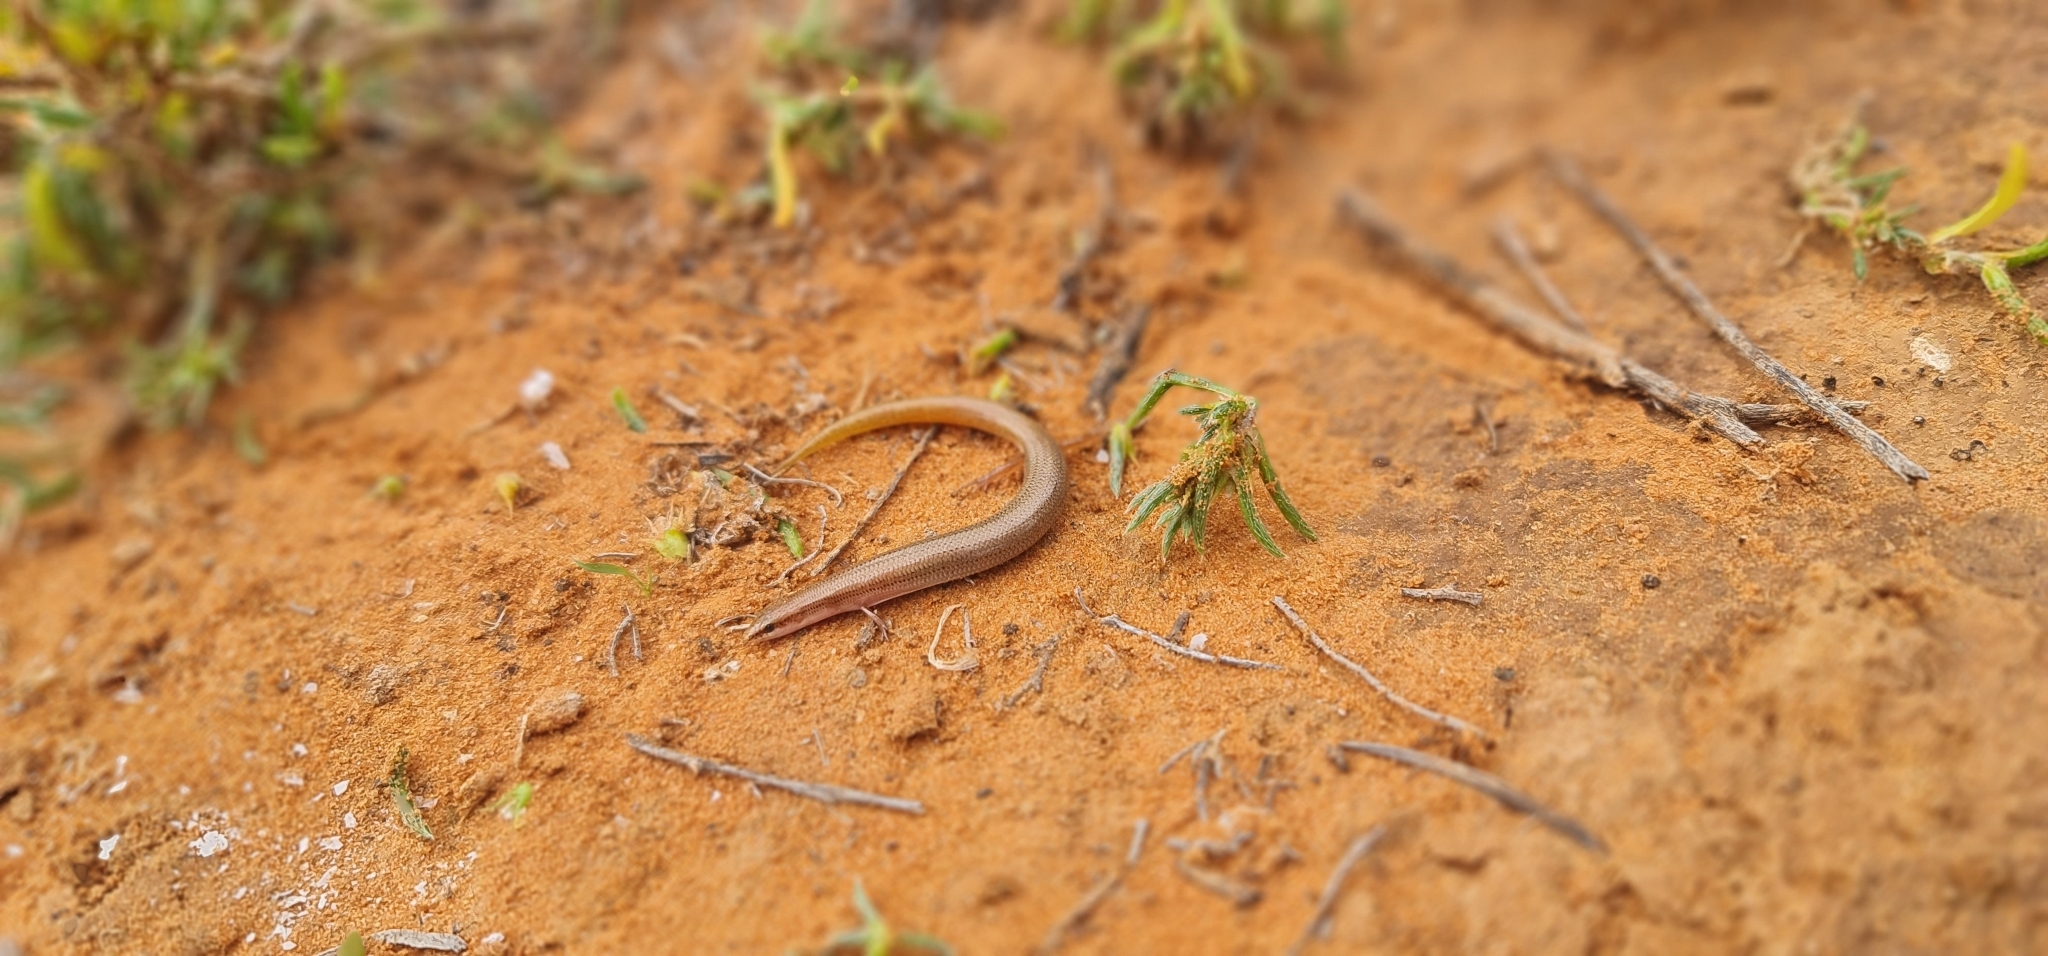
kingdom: Animalia
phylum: Chordata
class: Squamata
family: Scincidae
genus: Lerista
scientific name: Lerista aericeps
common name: Desert plain slider
